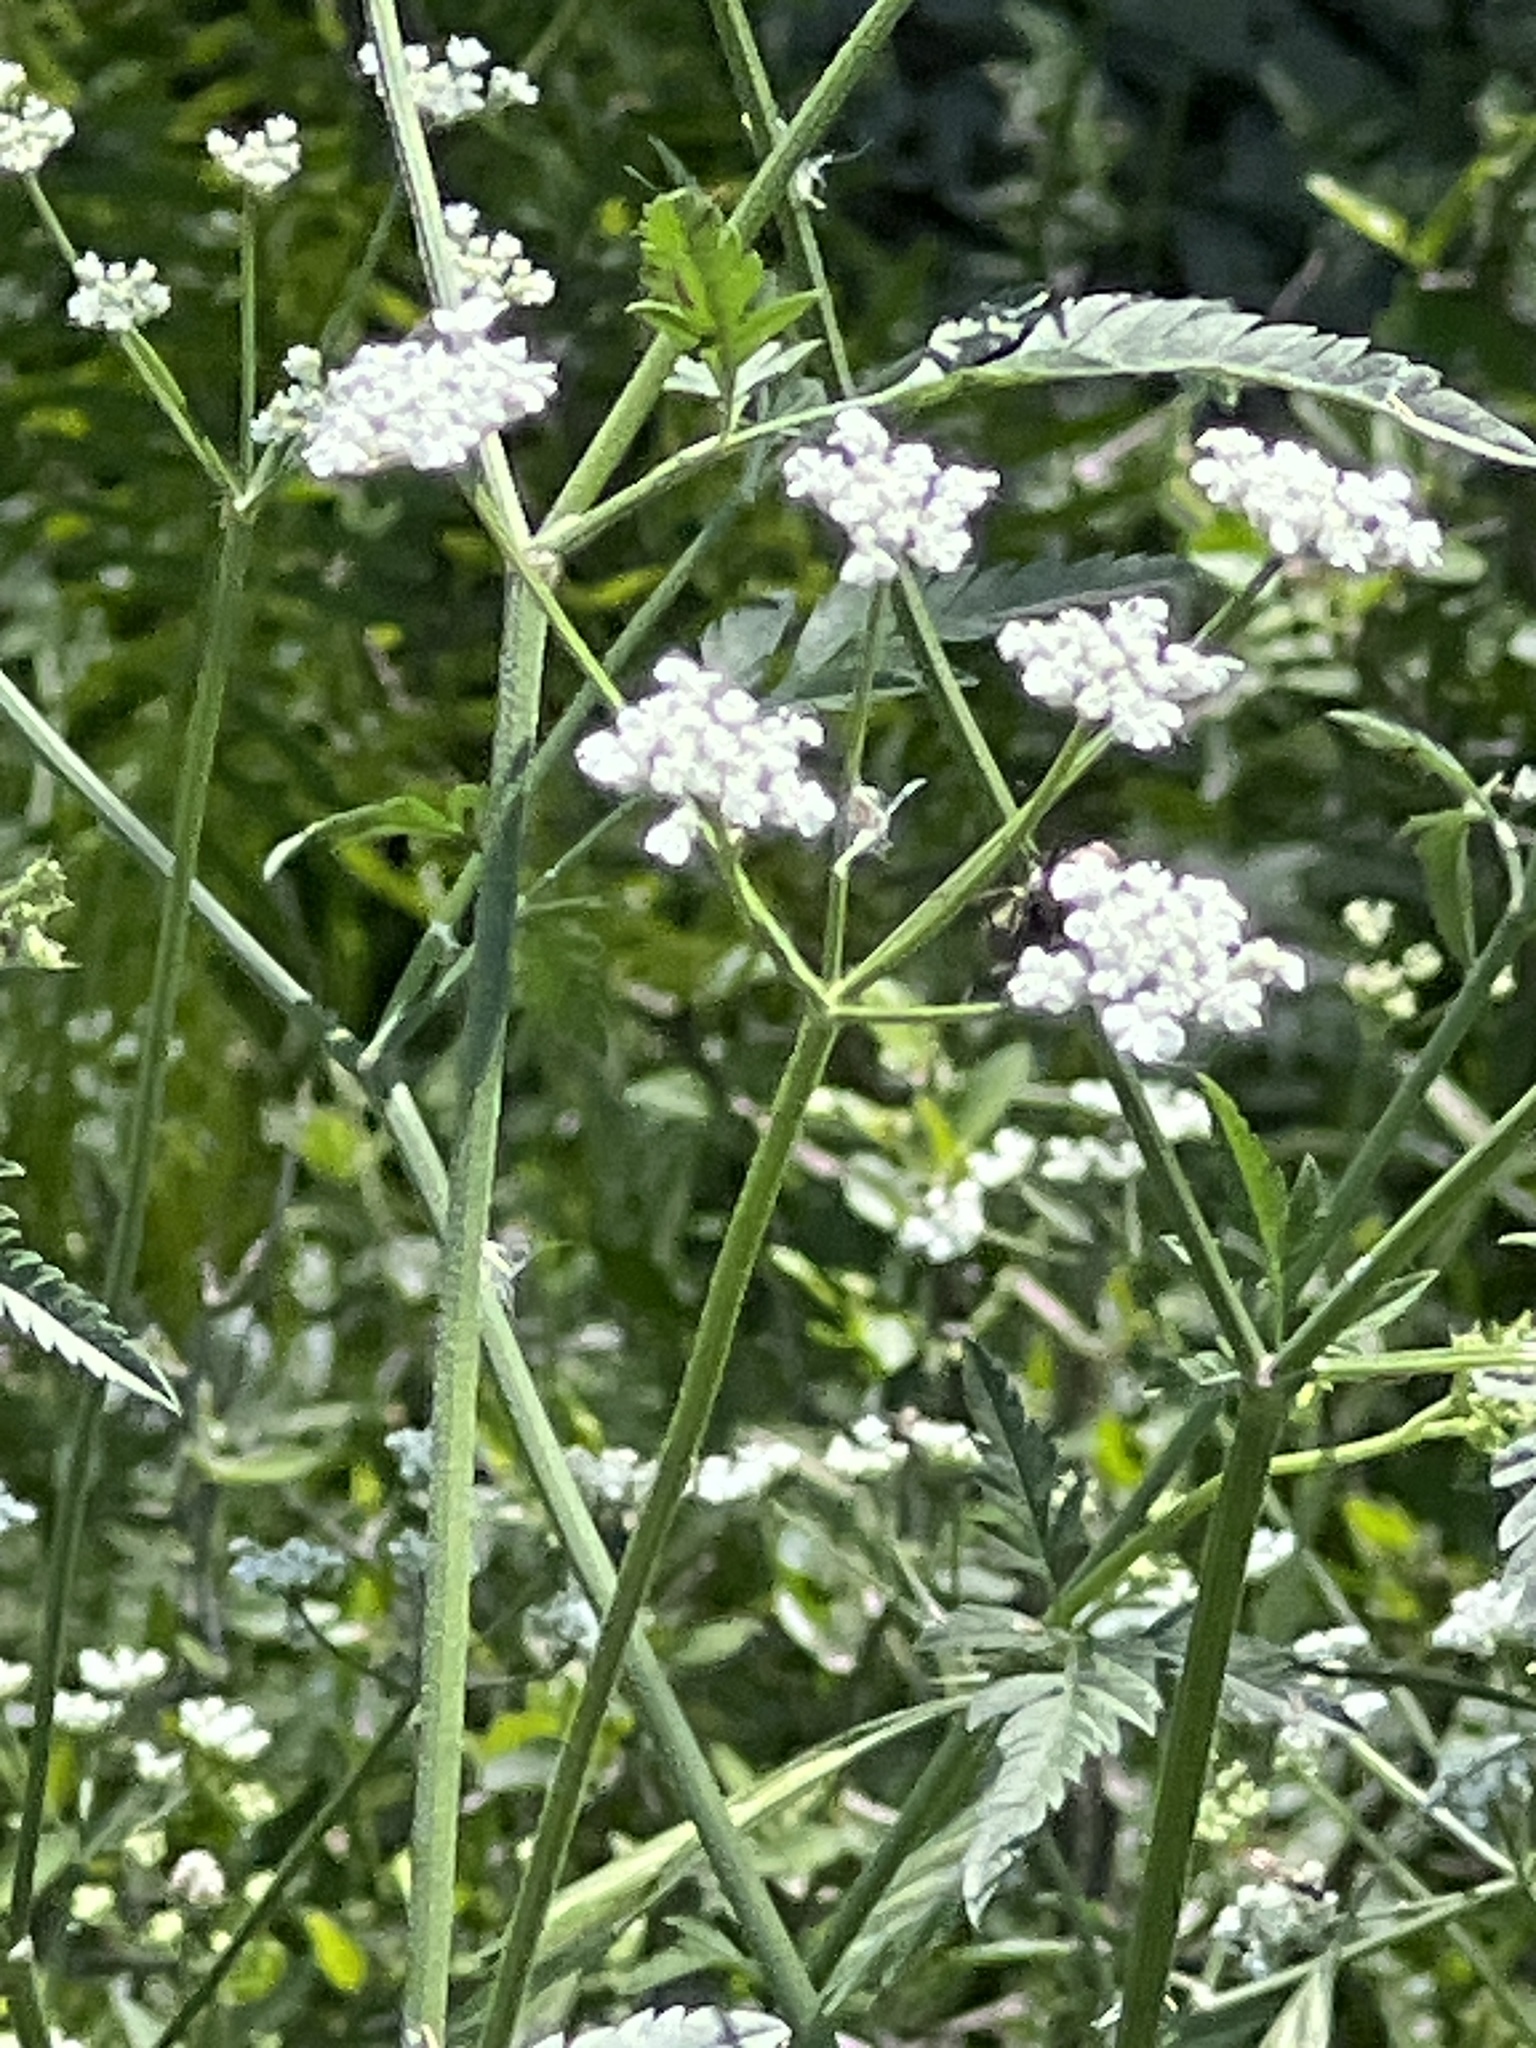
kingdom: Plantae
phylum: Tracheophyta
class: Magnoliopsida
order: Apiales
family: Apiaceae
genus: Torilis
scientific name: Torilis arvensis
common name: Spreading hedge-parsley
